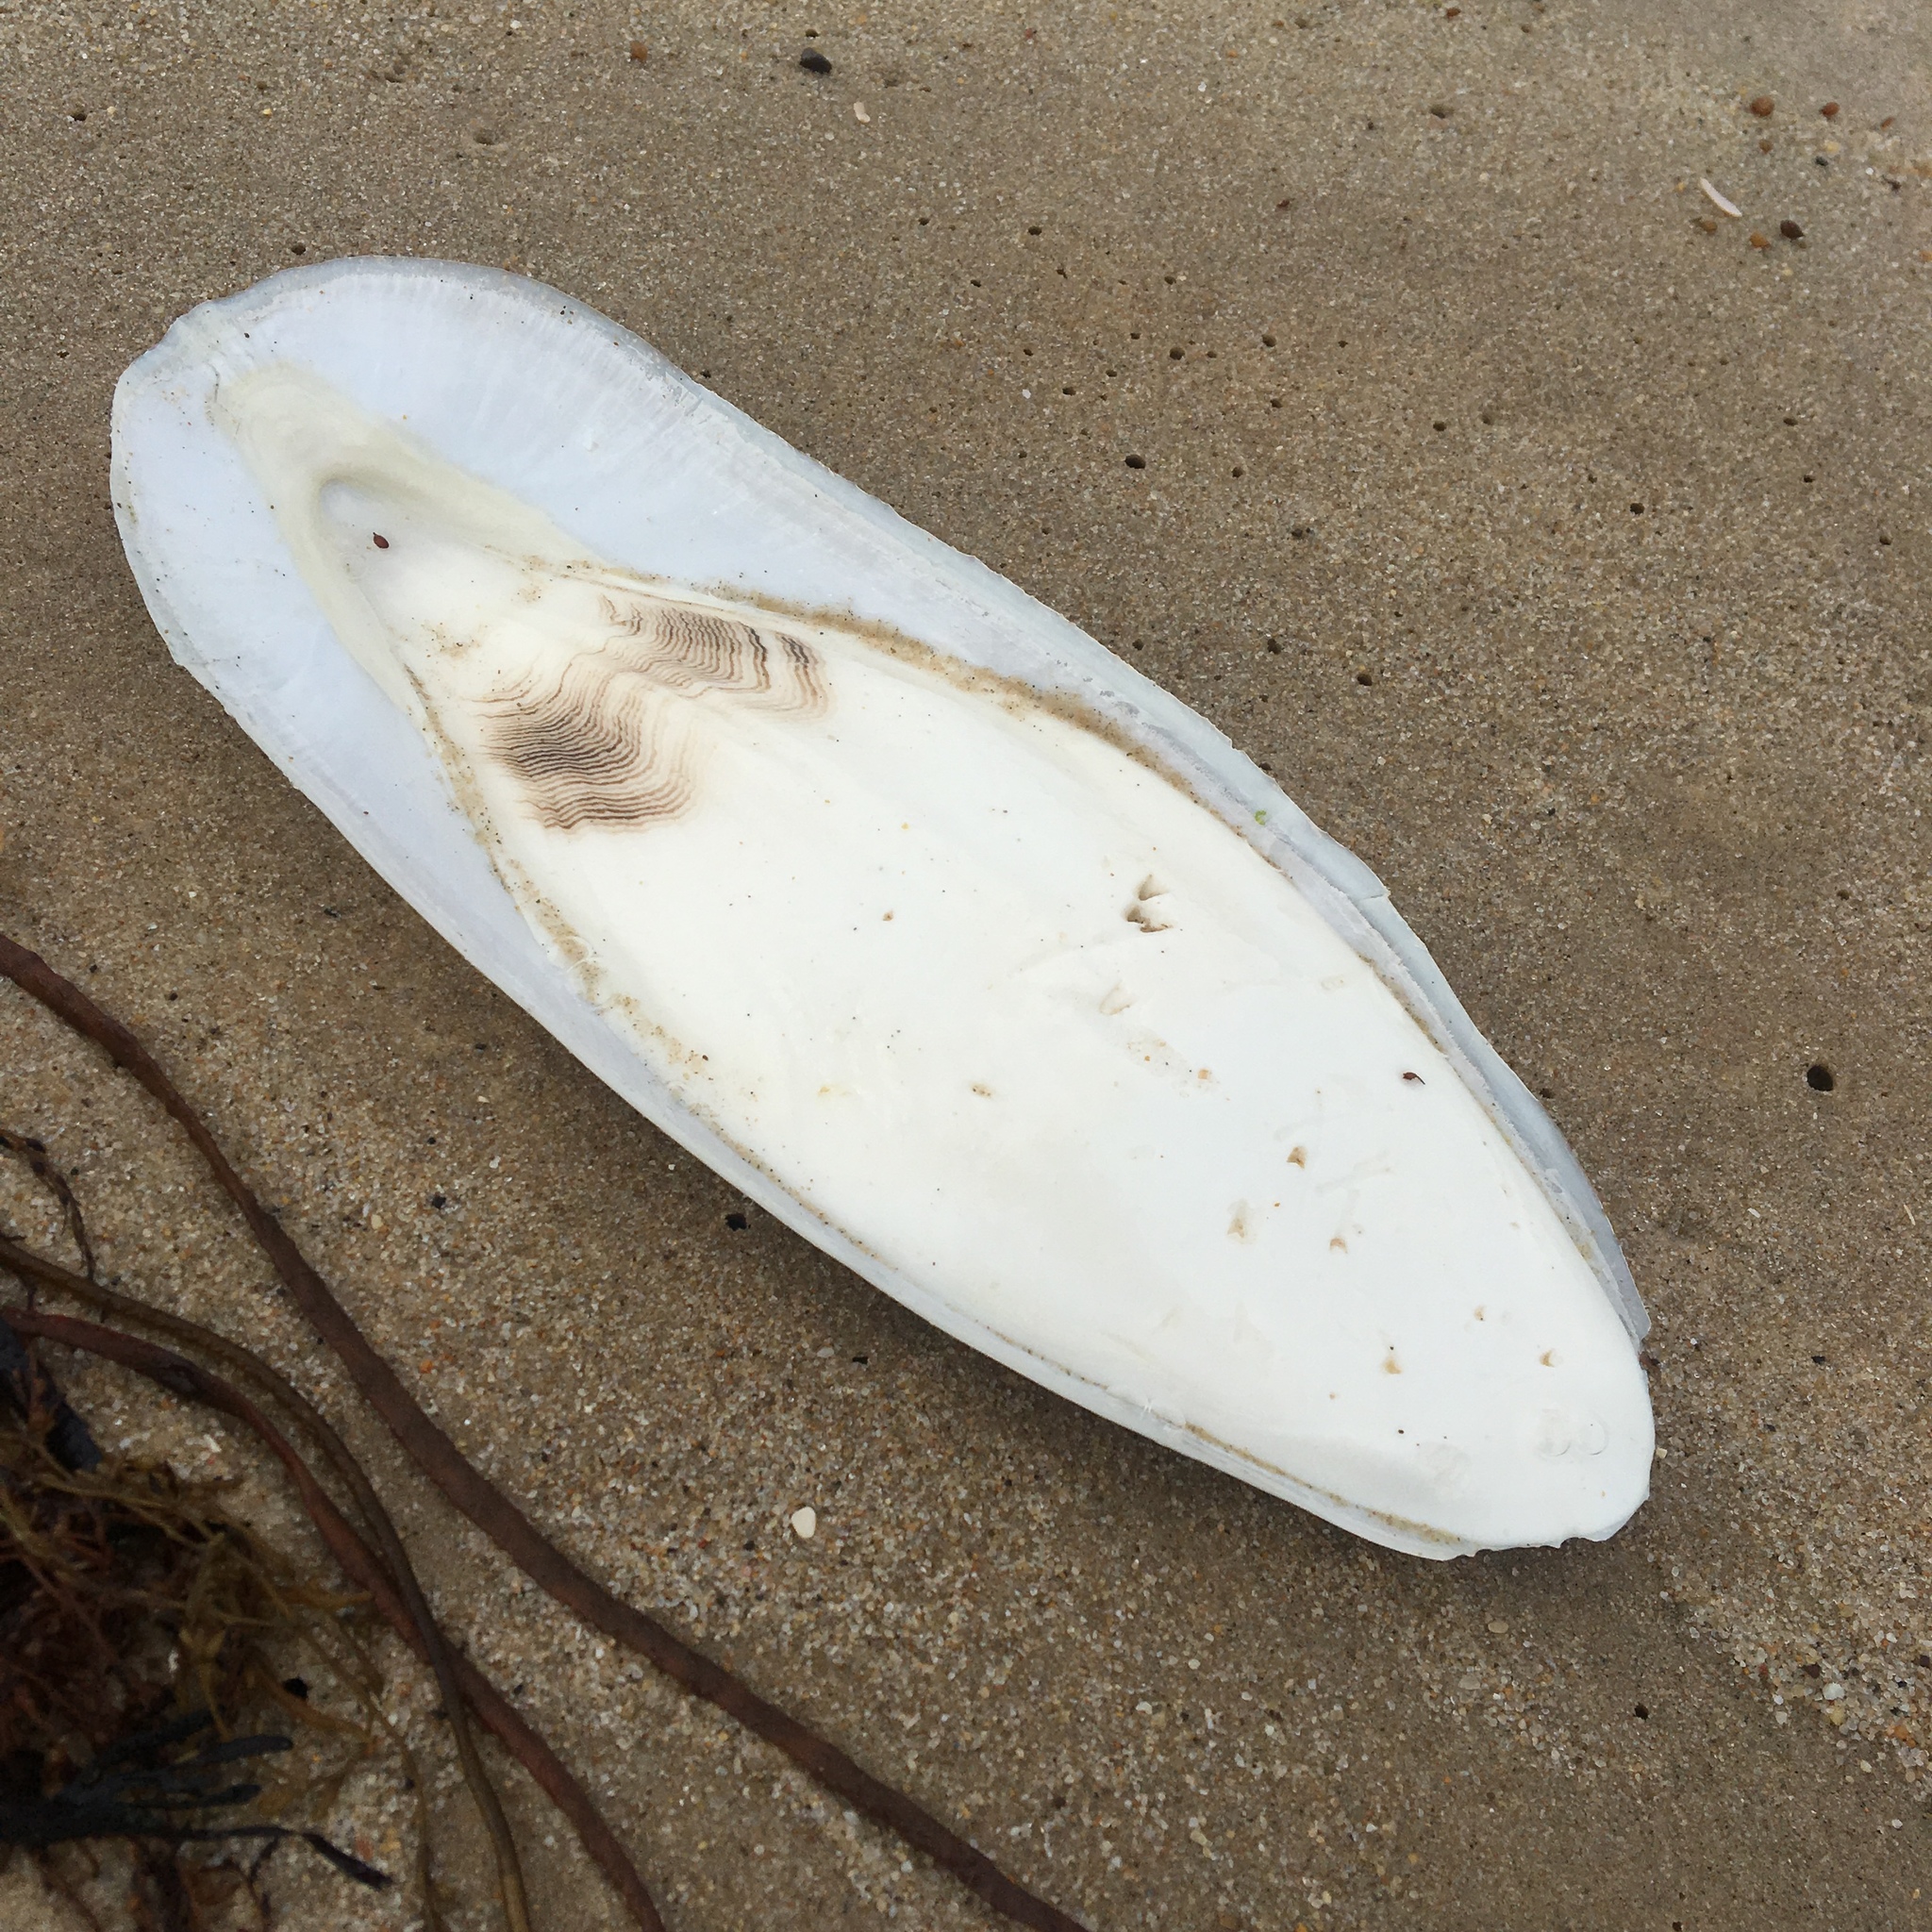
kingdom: Animalia
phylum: Mollusca
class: Cephalopoda
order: Sepiida
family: Sepiidae
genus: Sepia
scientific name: Sepia officinalis
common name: Common cuttlefish
